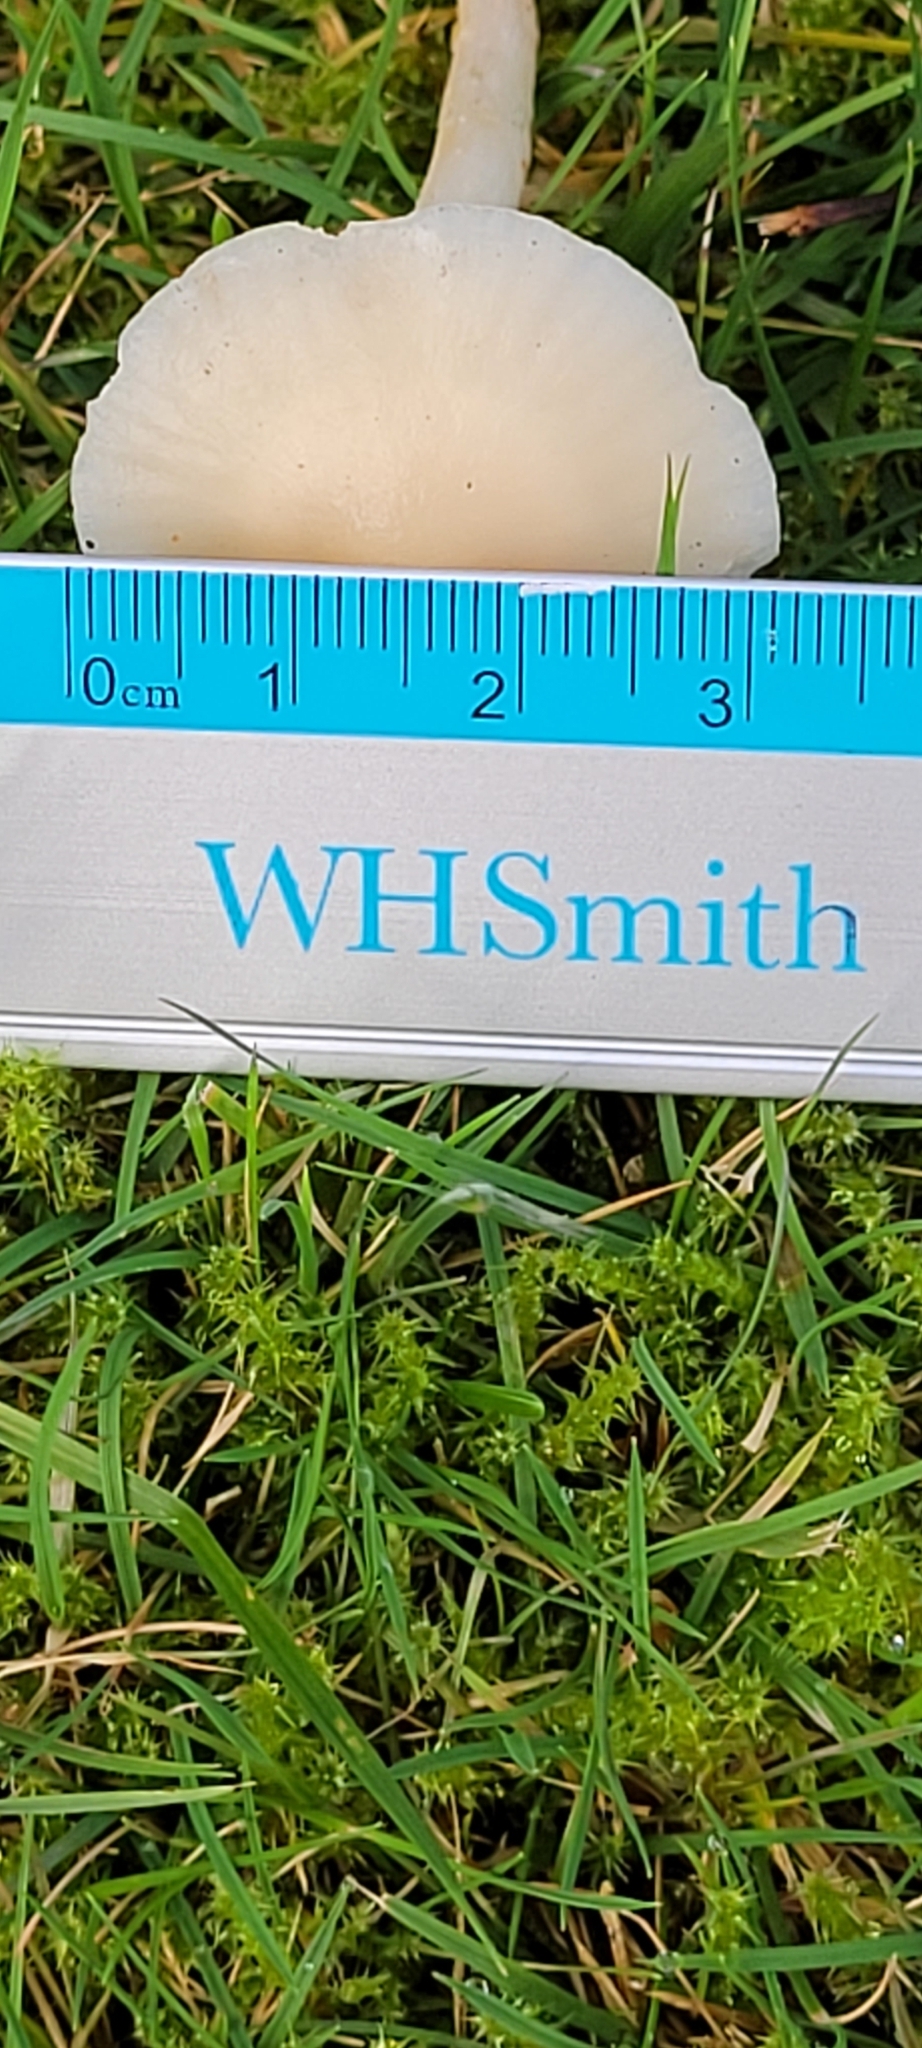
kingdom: Fungi
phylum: Basidiomycota
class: Agaricomycetes
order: Agaricales
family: Hygrophoraceae
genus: Cuphophyllus
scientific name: Cuphophyllus virgineus
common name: Snowy waxcap
